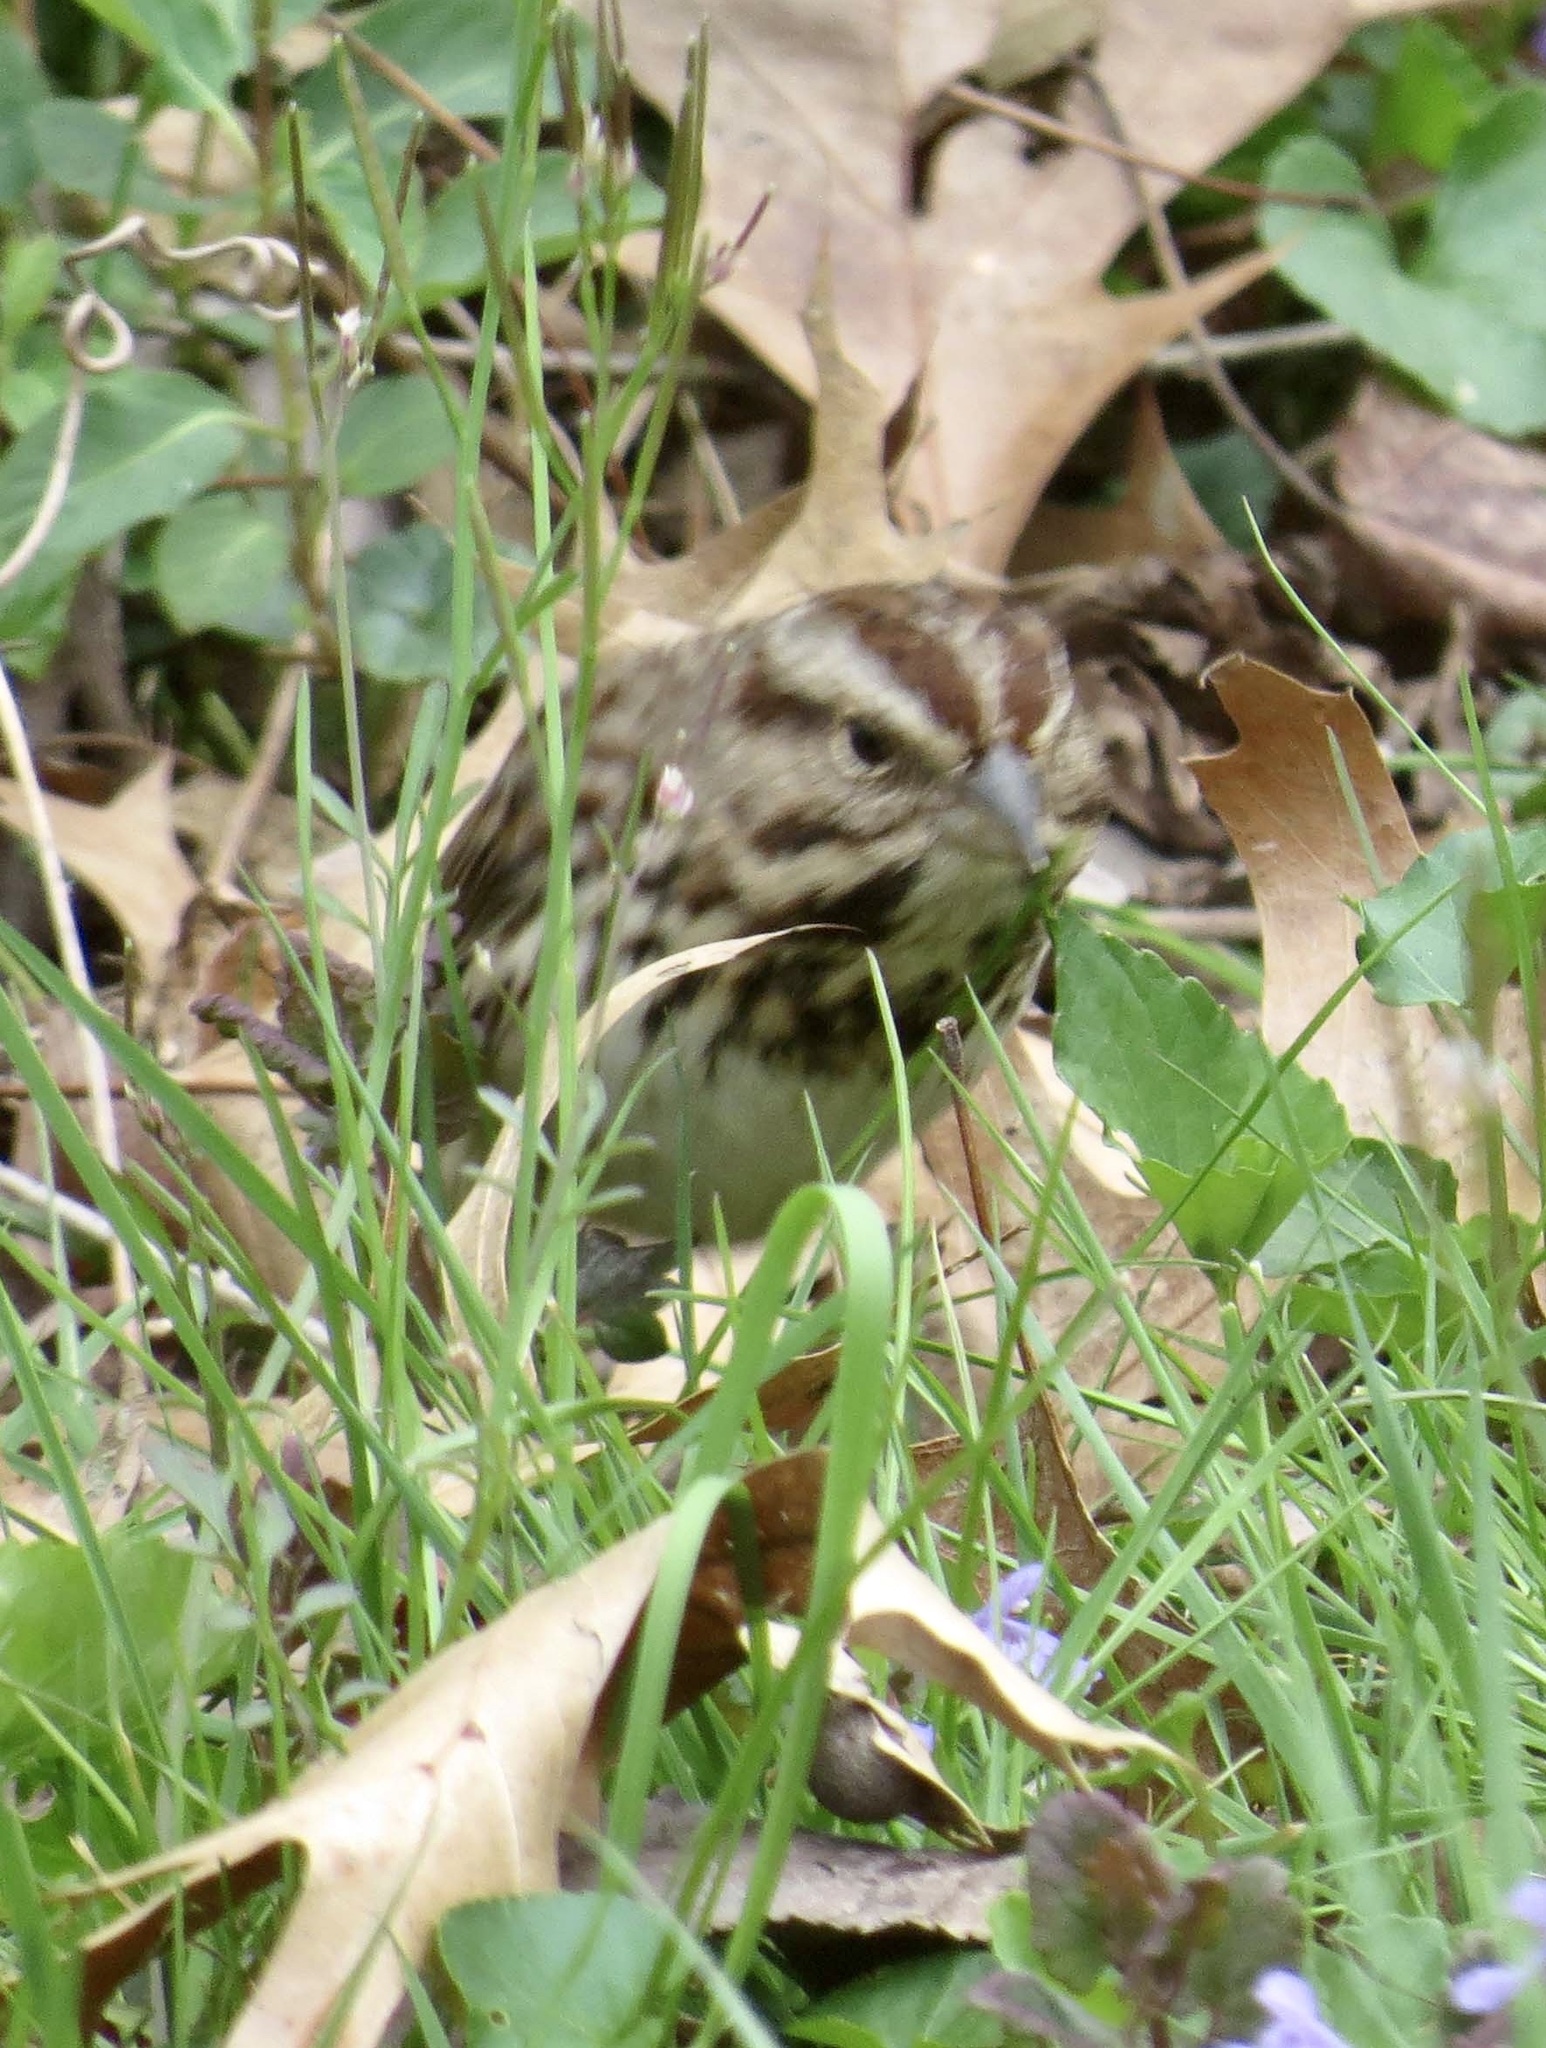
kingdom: Animalia
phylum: Chordata
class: Aves
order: Passeriformes
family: Passerellidae
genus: Melospiza
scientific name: Melospiza melodia
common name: Song sparrow
